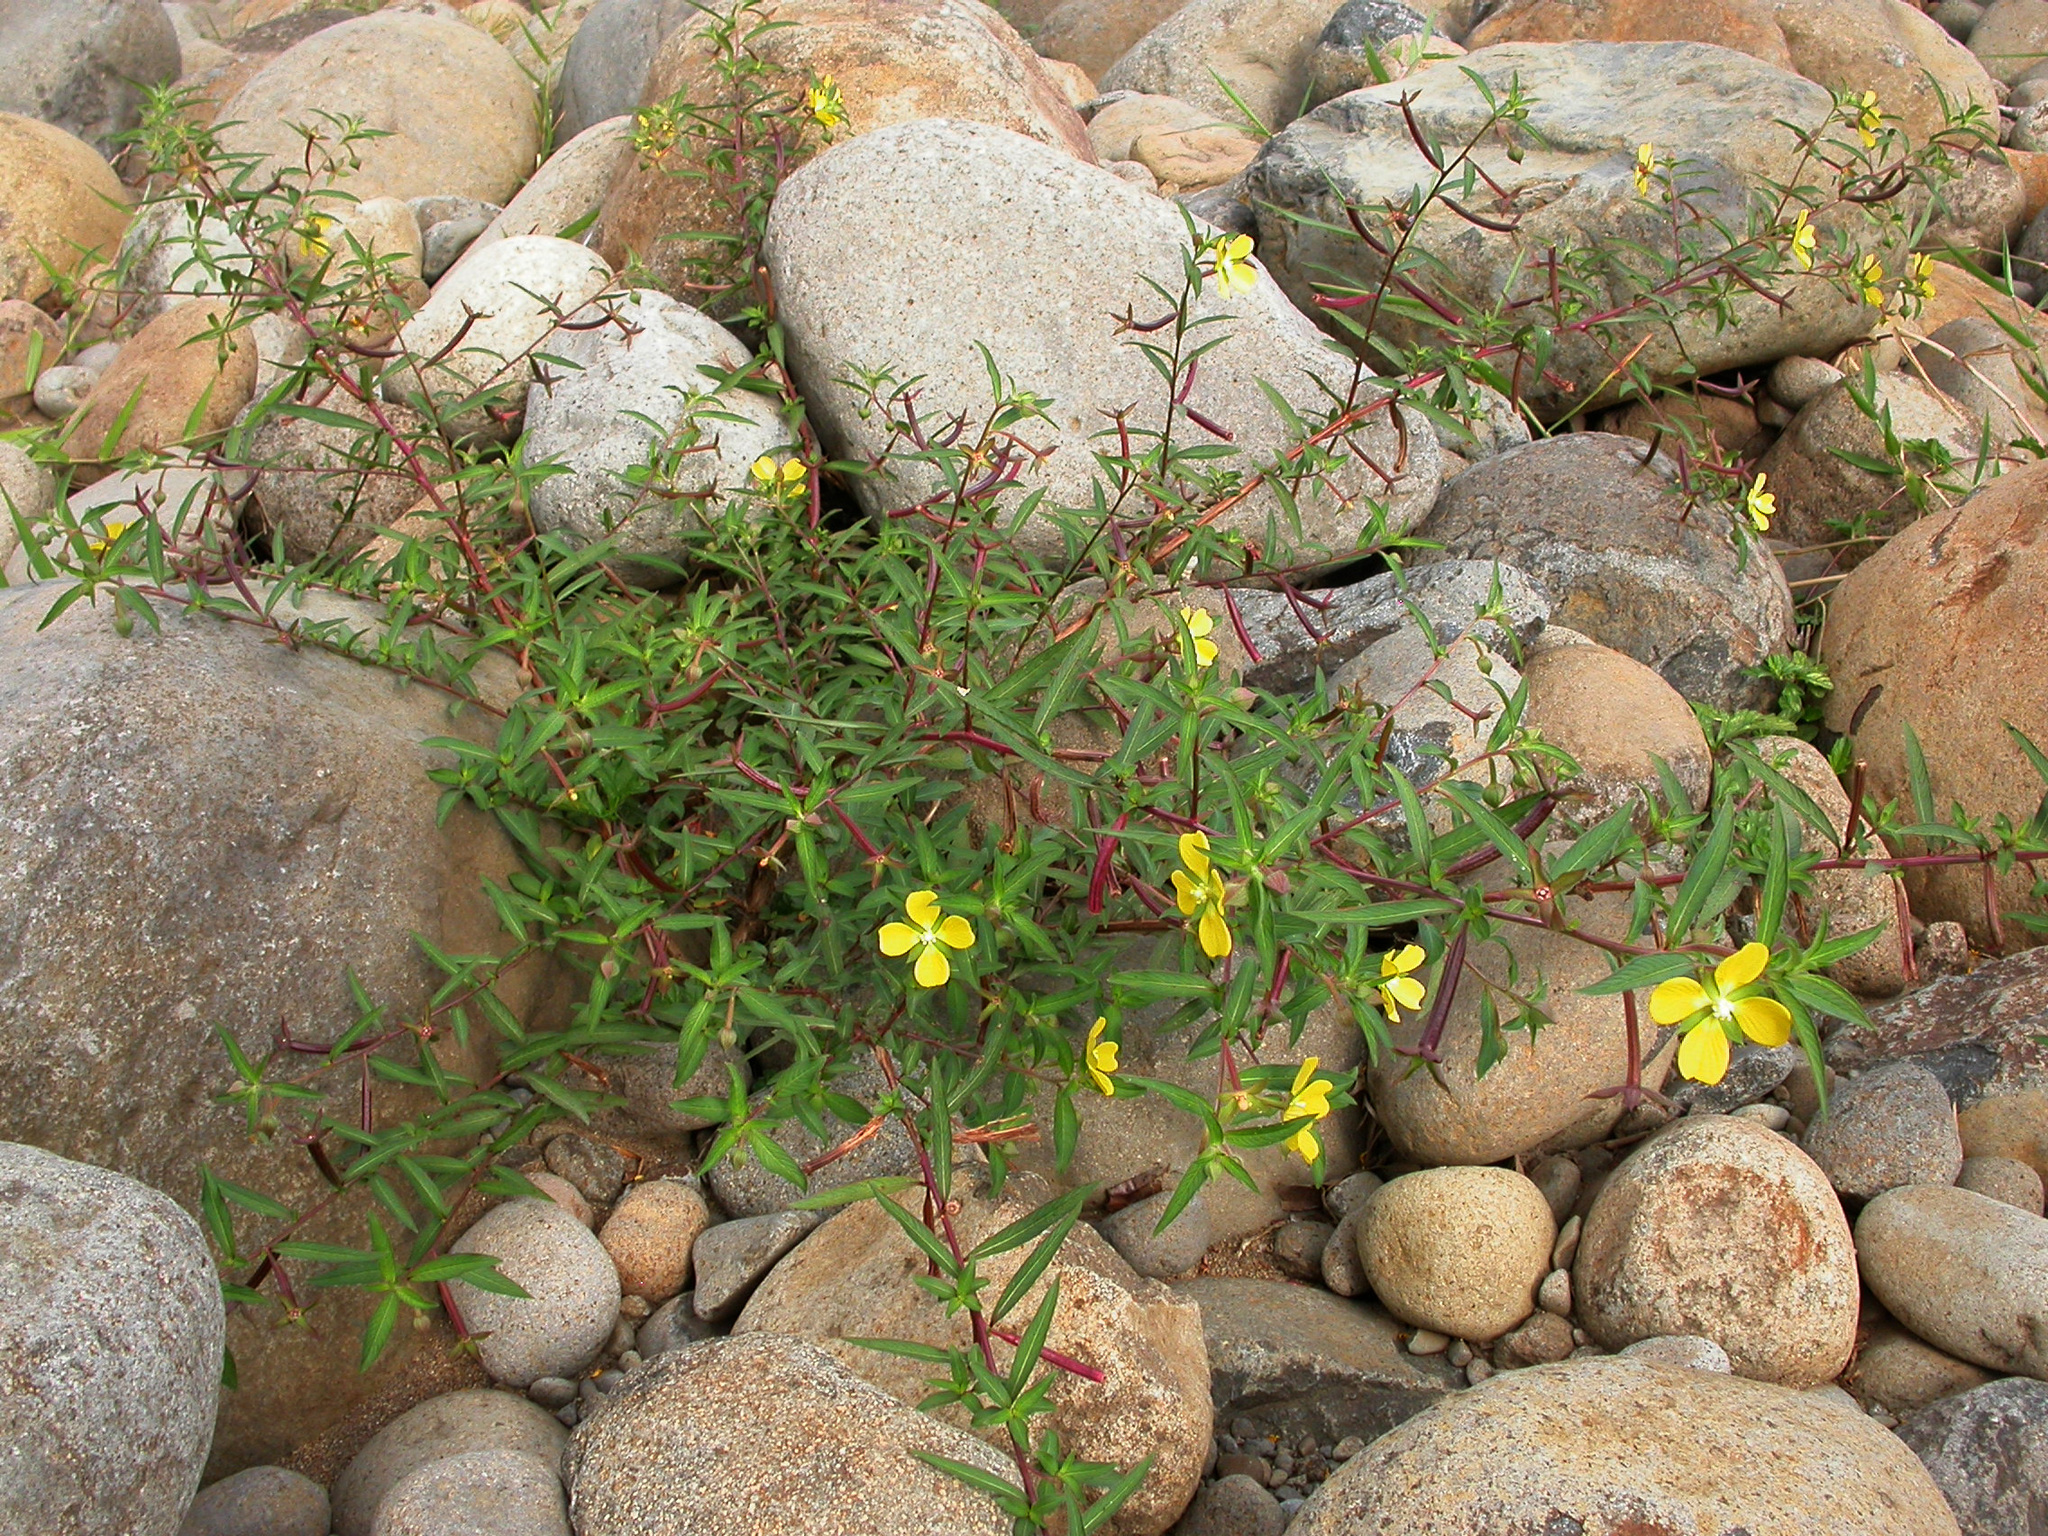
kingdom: Plantae
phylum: Tracheophyta
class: Magnoliopsida
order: Myrtales
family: Onagraceae
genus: Ludwigia
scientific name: Ludwigia octovalvis
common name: Water-primrose
